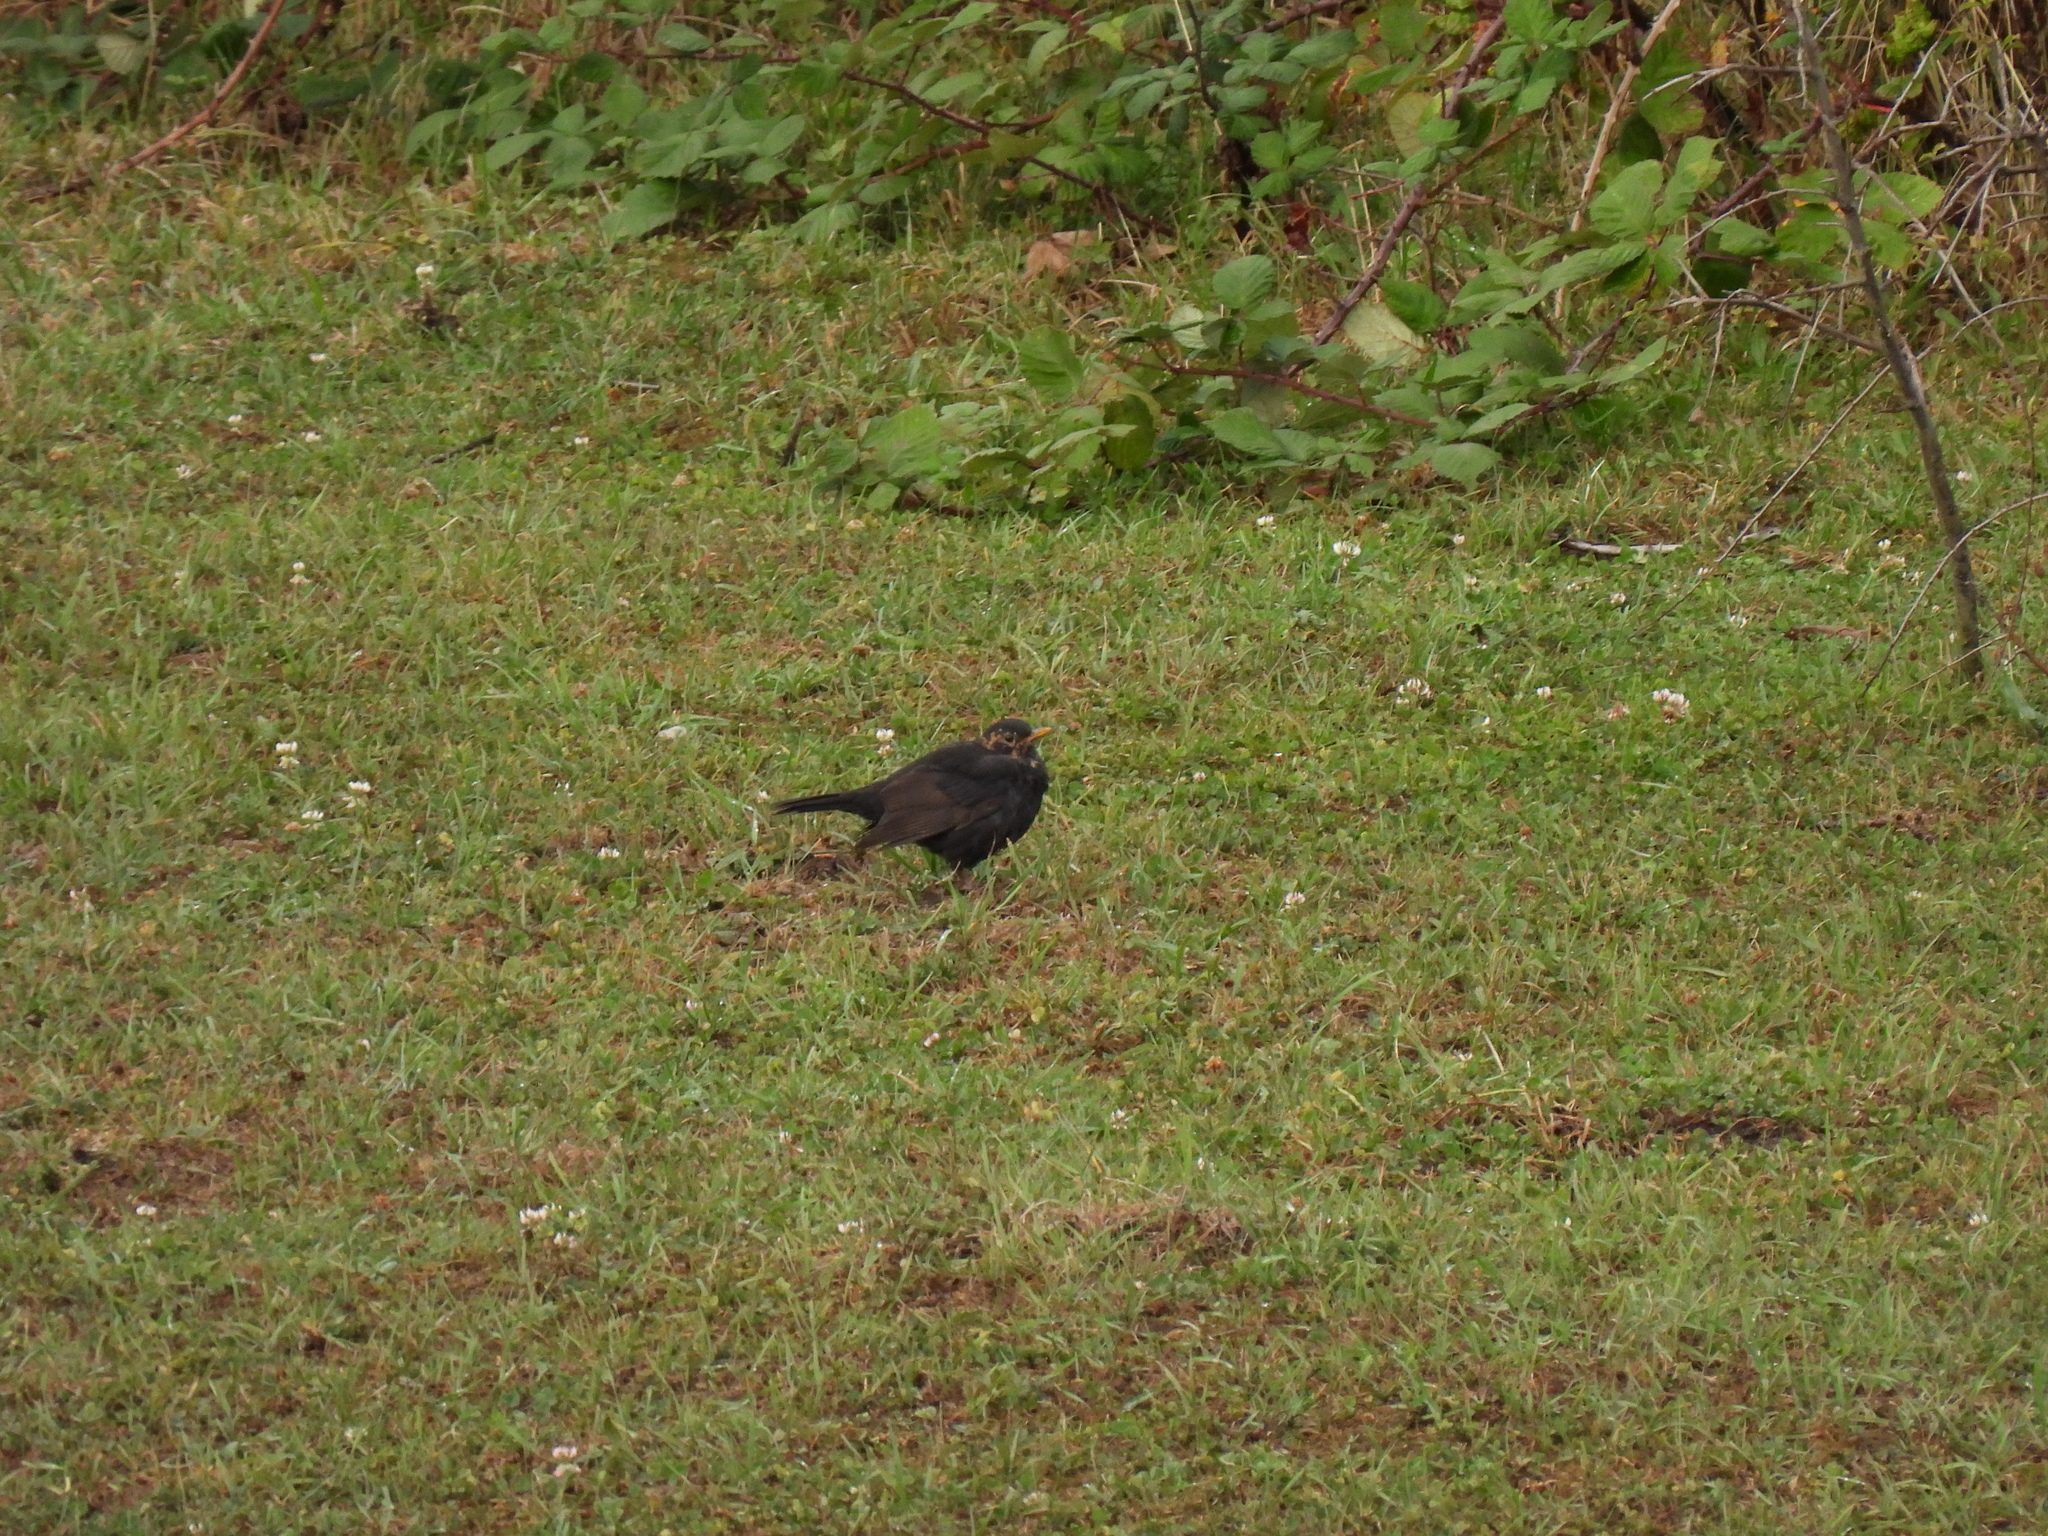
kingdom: Animalia
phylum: Chordata
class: Aves
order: Passeriformes
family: Turdidae
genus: Turdus
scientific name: Turdus merula
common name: Common blackbird
